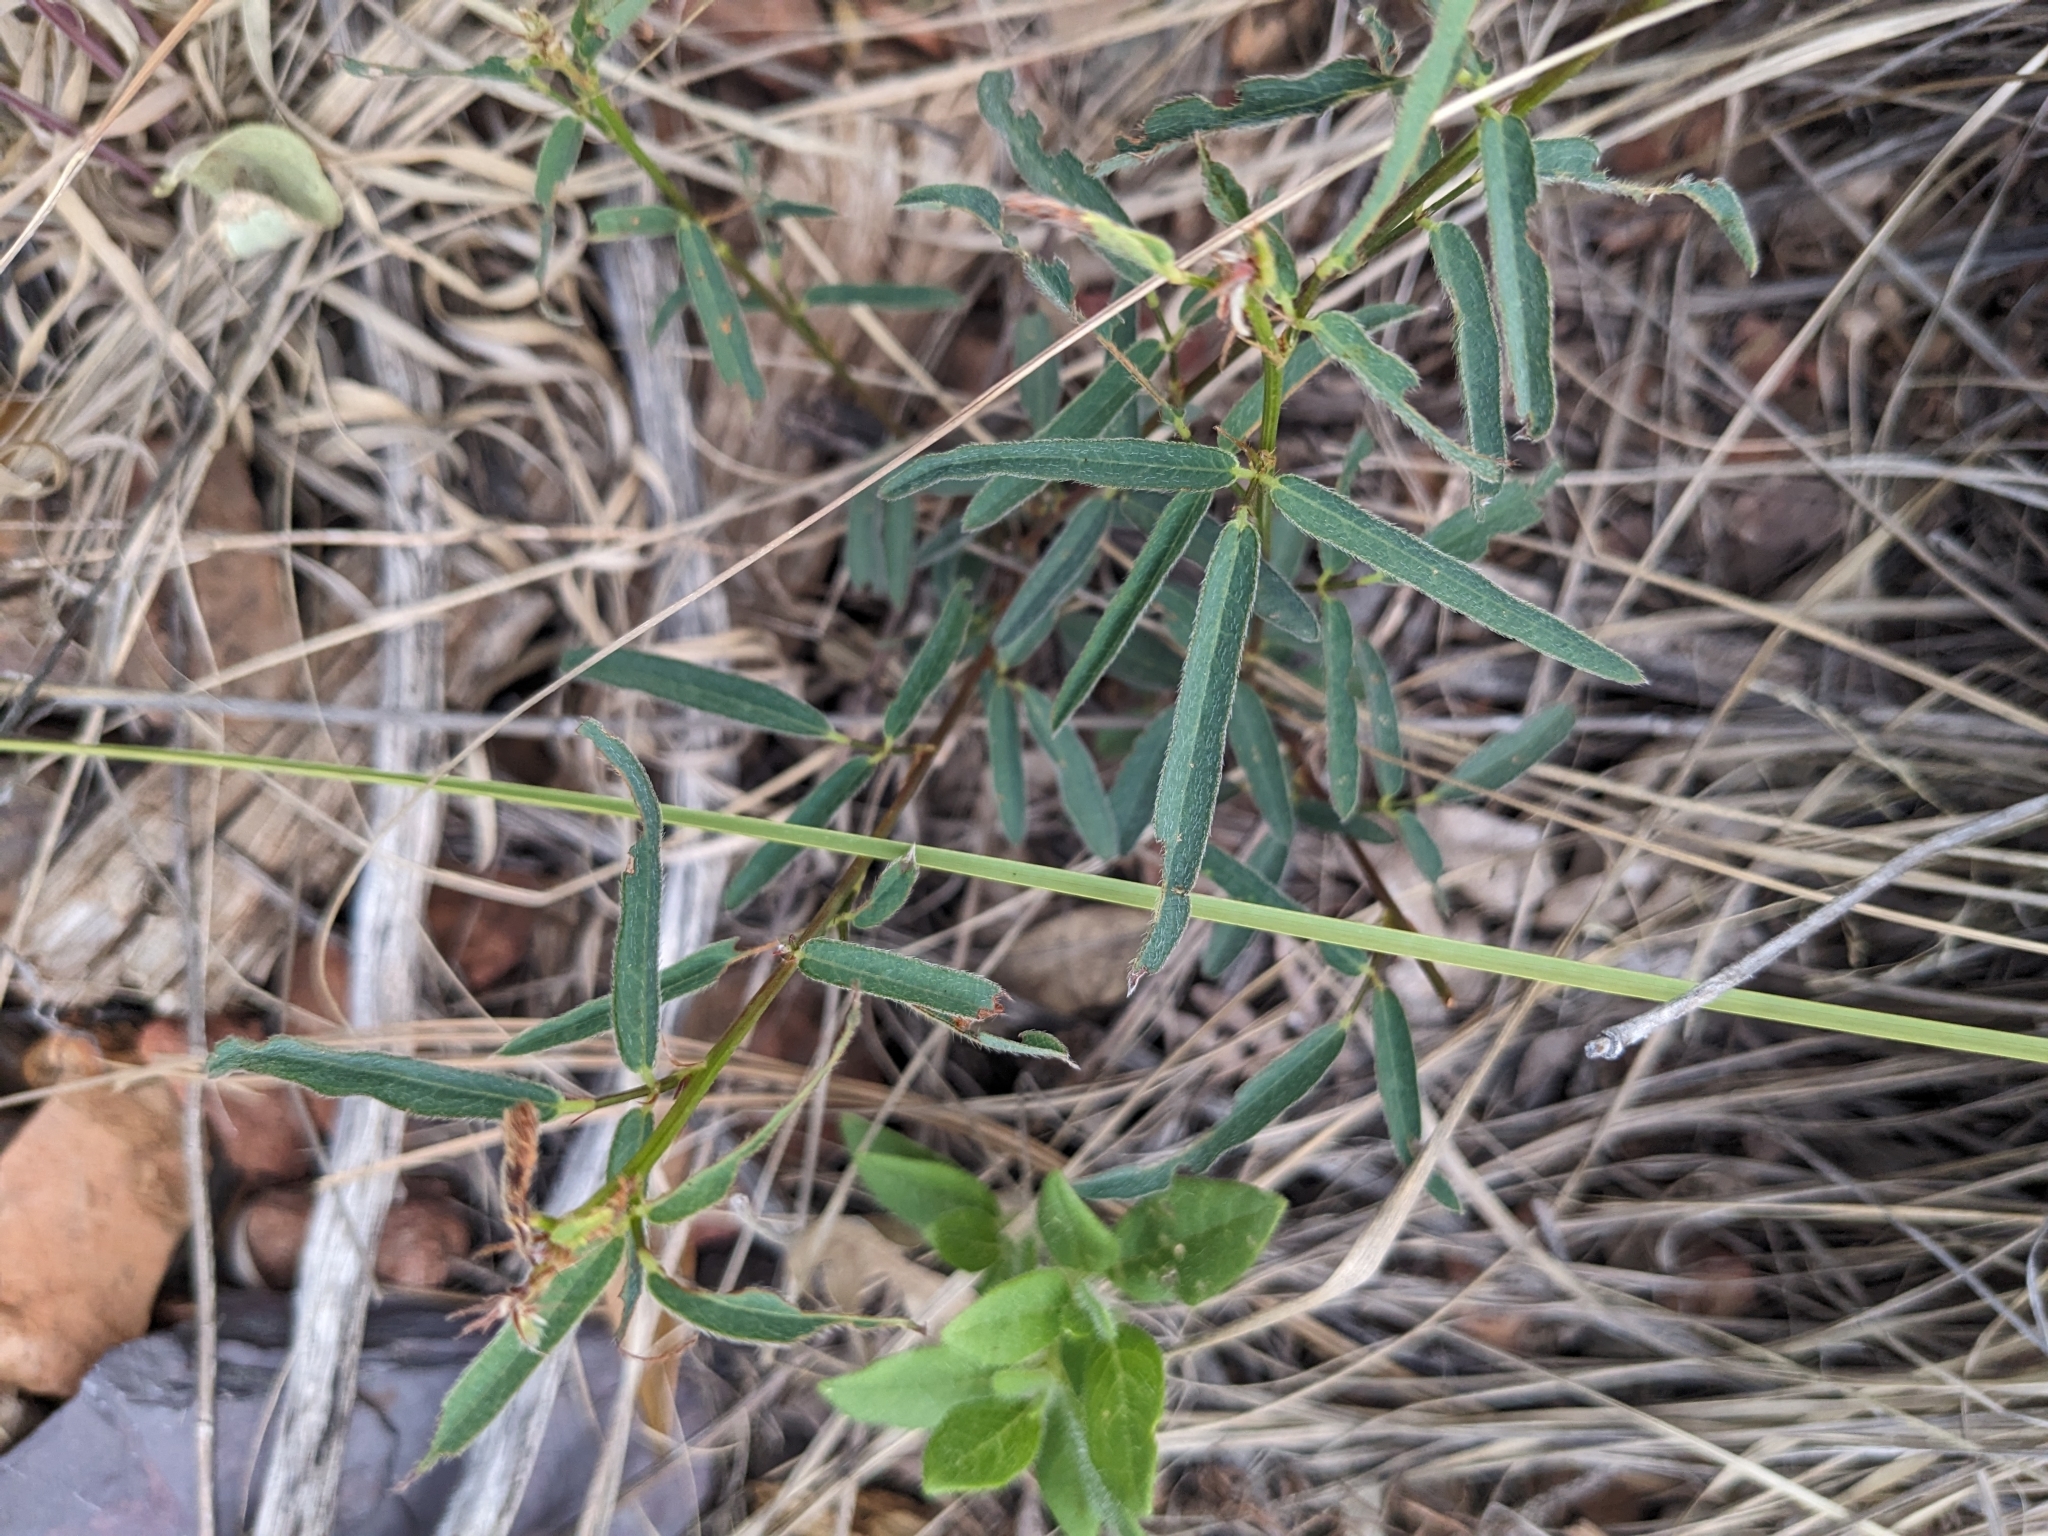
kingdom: Plantae
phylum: Tracheophyta
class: Magnoliopsida
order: Fabales
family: Fabaceae
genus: Desmodium
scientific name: Desmodium arizonicum
